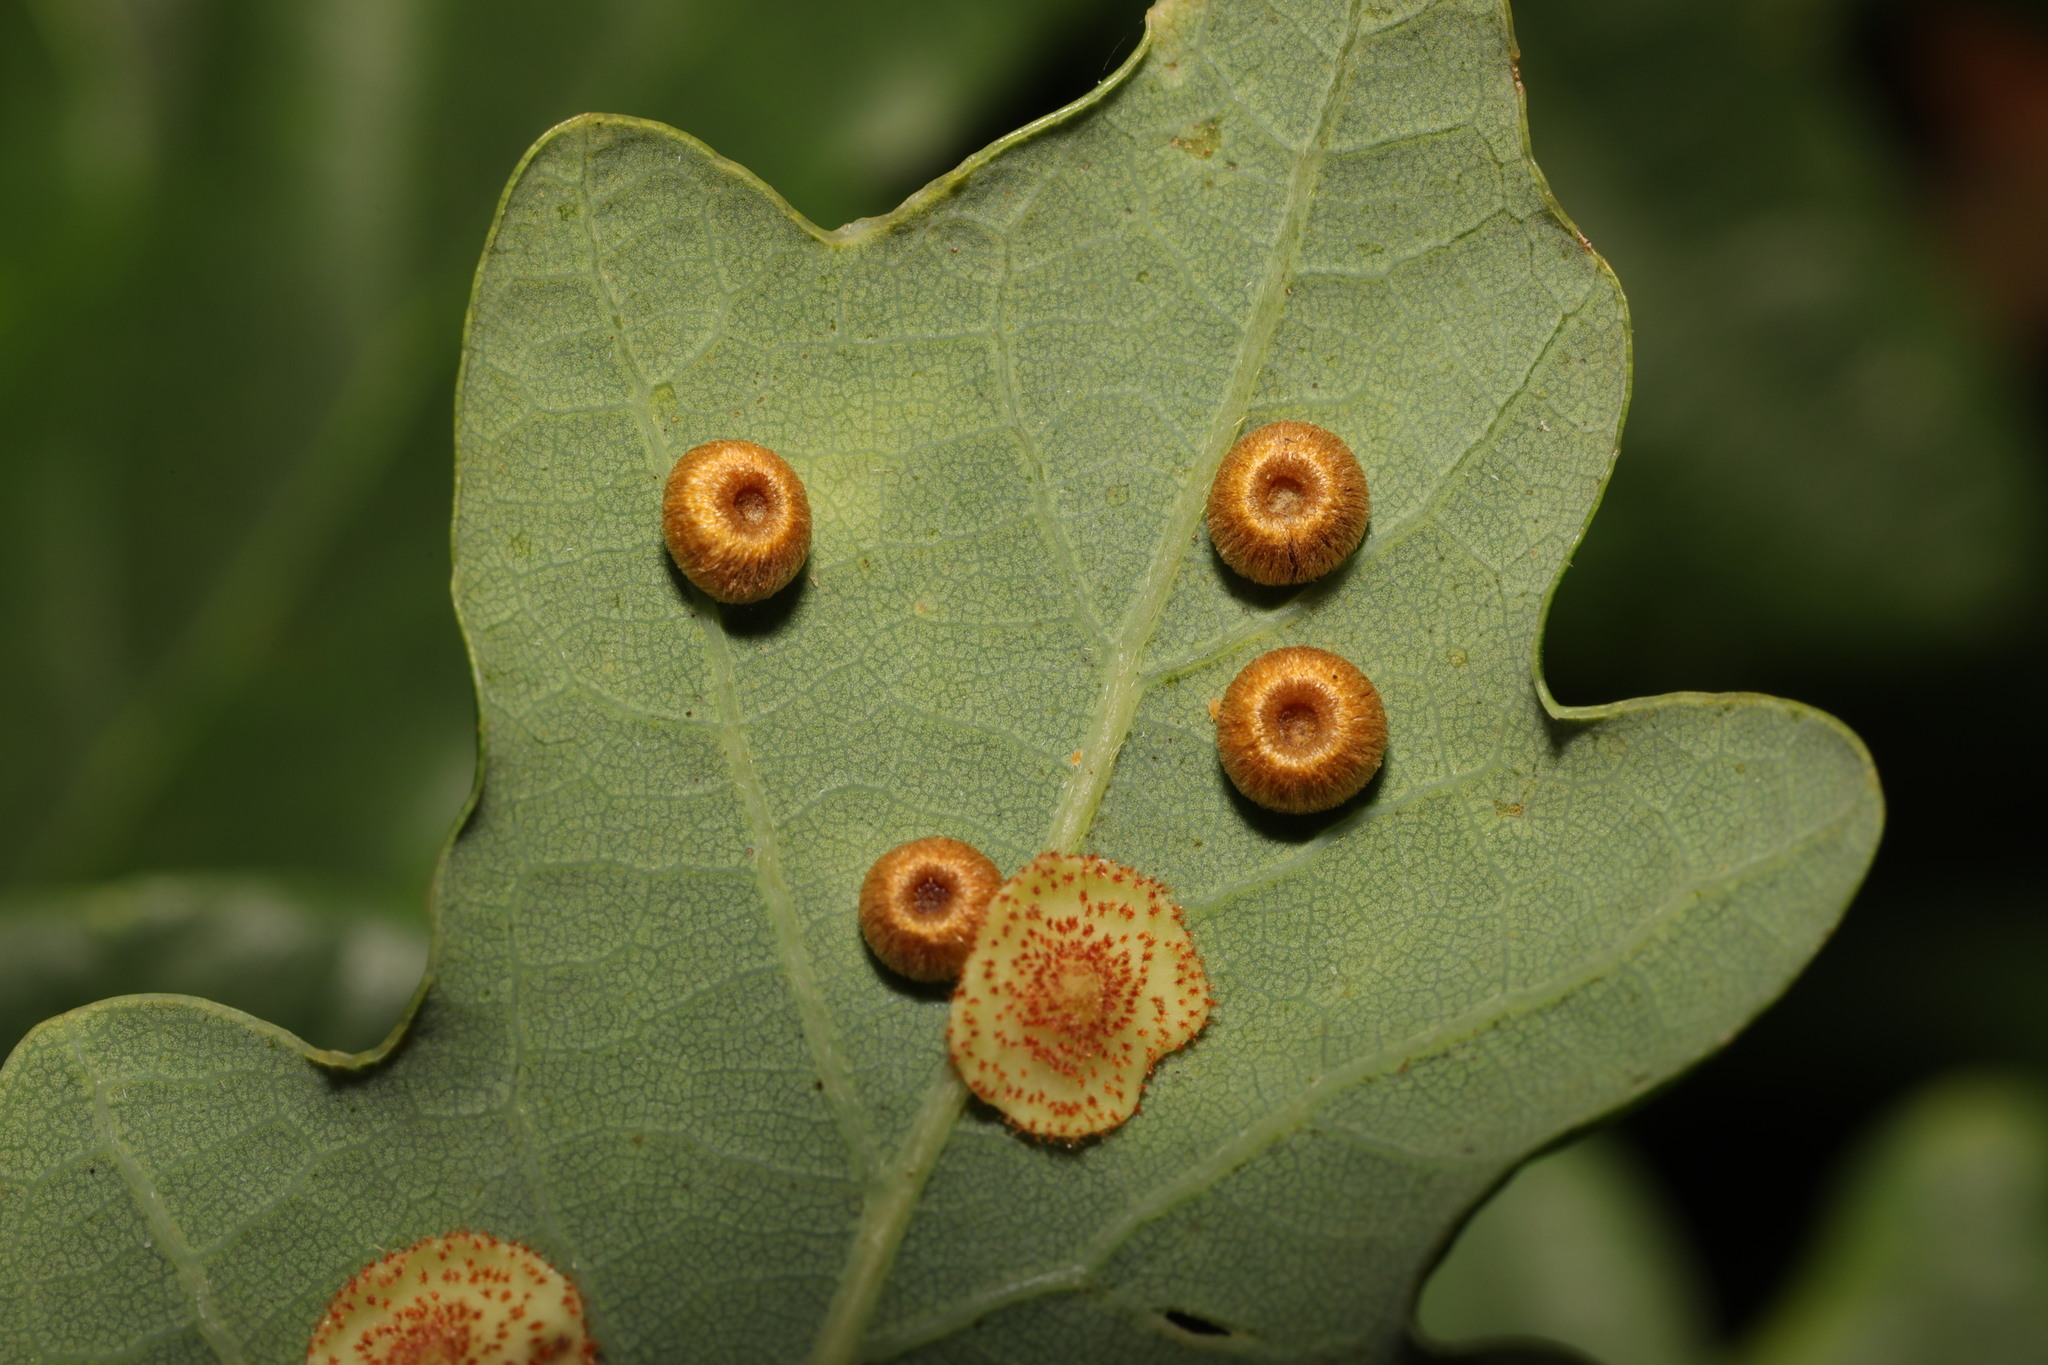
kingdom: Animalia
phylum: Arthropoda
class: Insecta
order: Hymenoptera
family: Cynipidae
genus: Neuroterus
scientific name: Neuroterus numismalis
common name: Silk-button spangle gall
